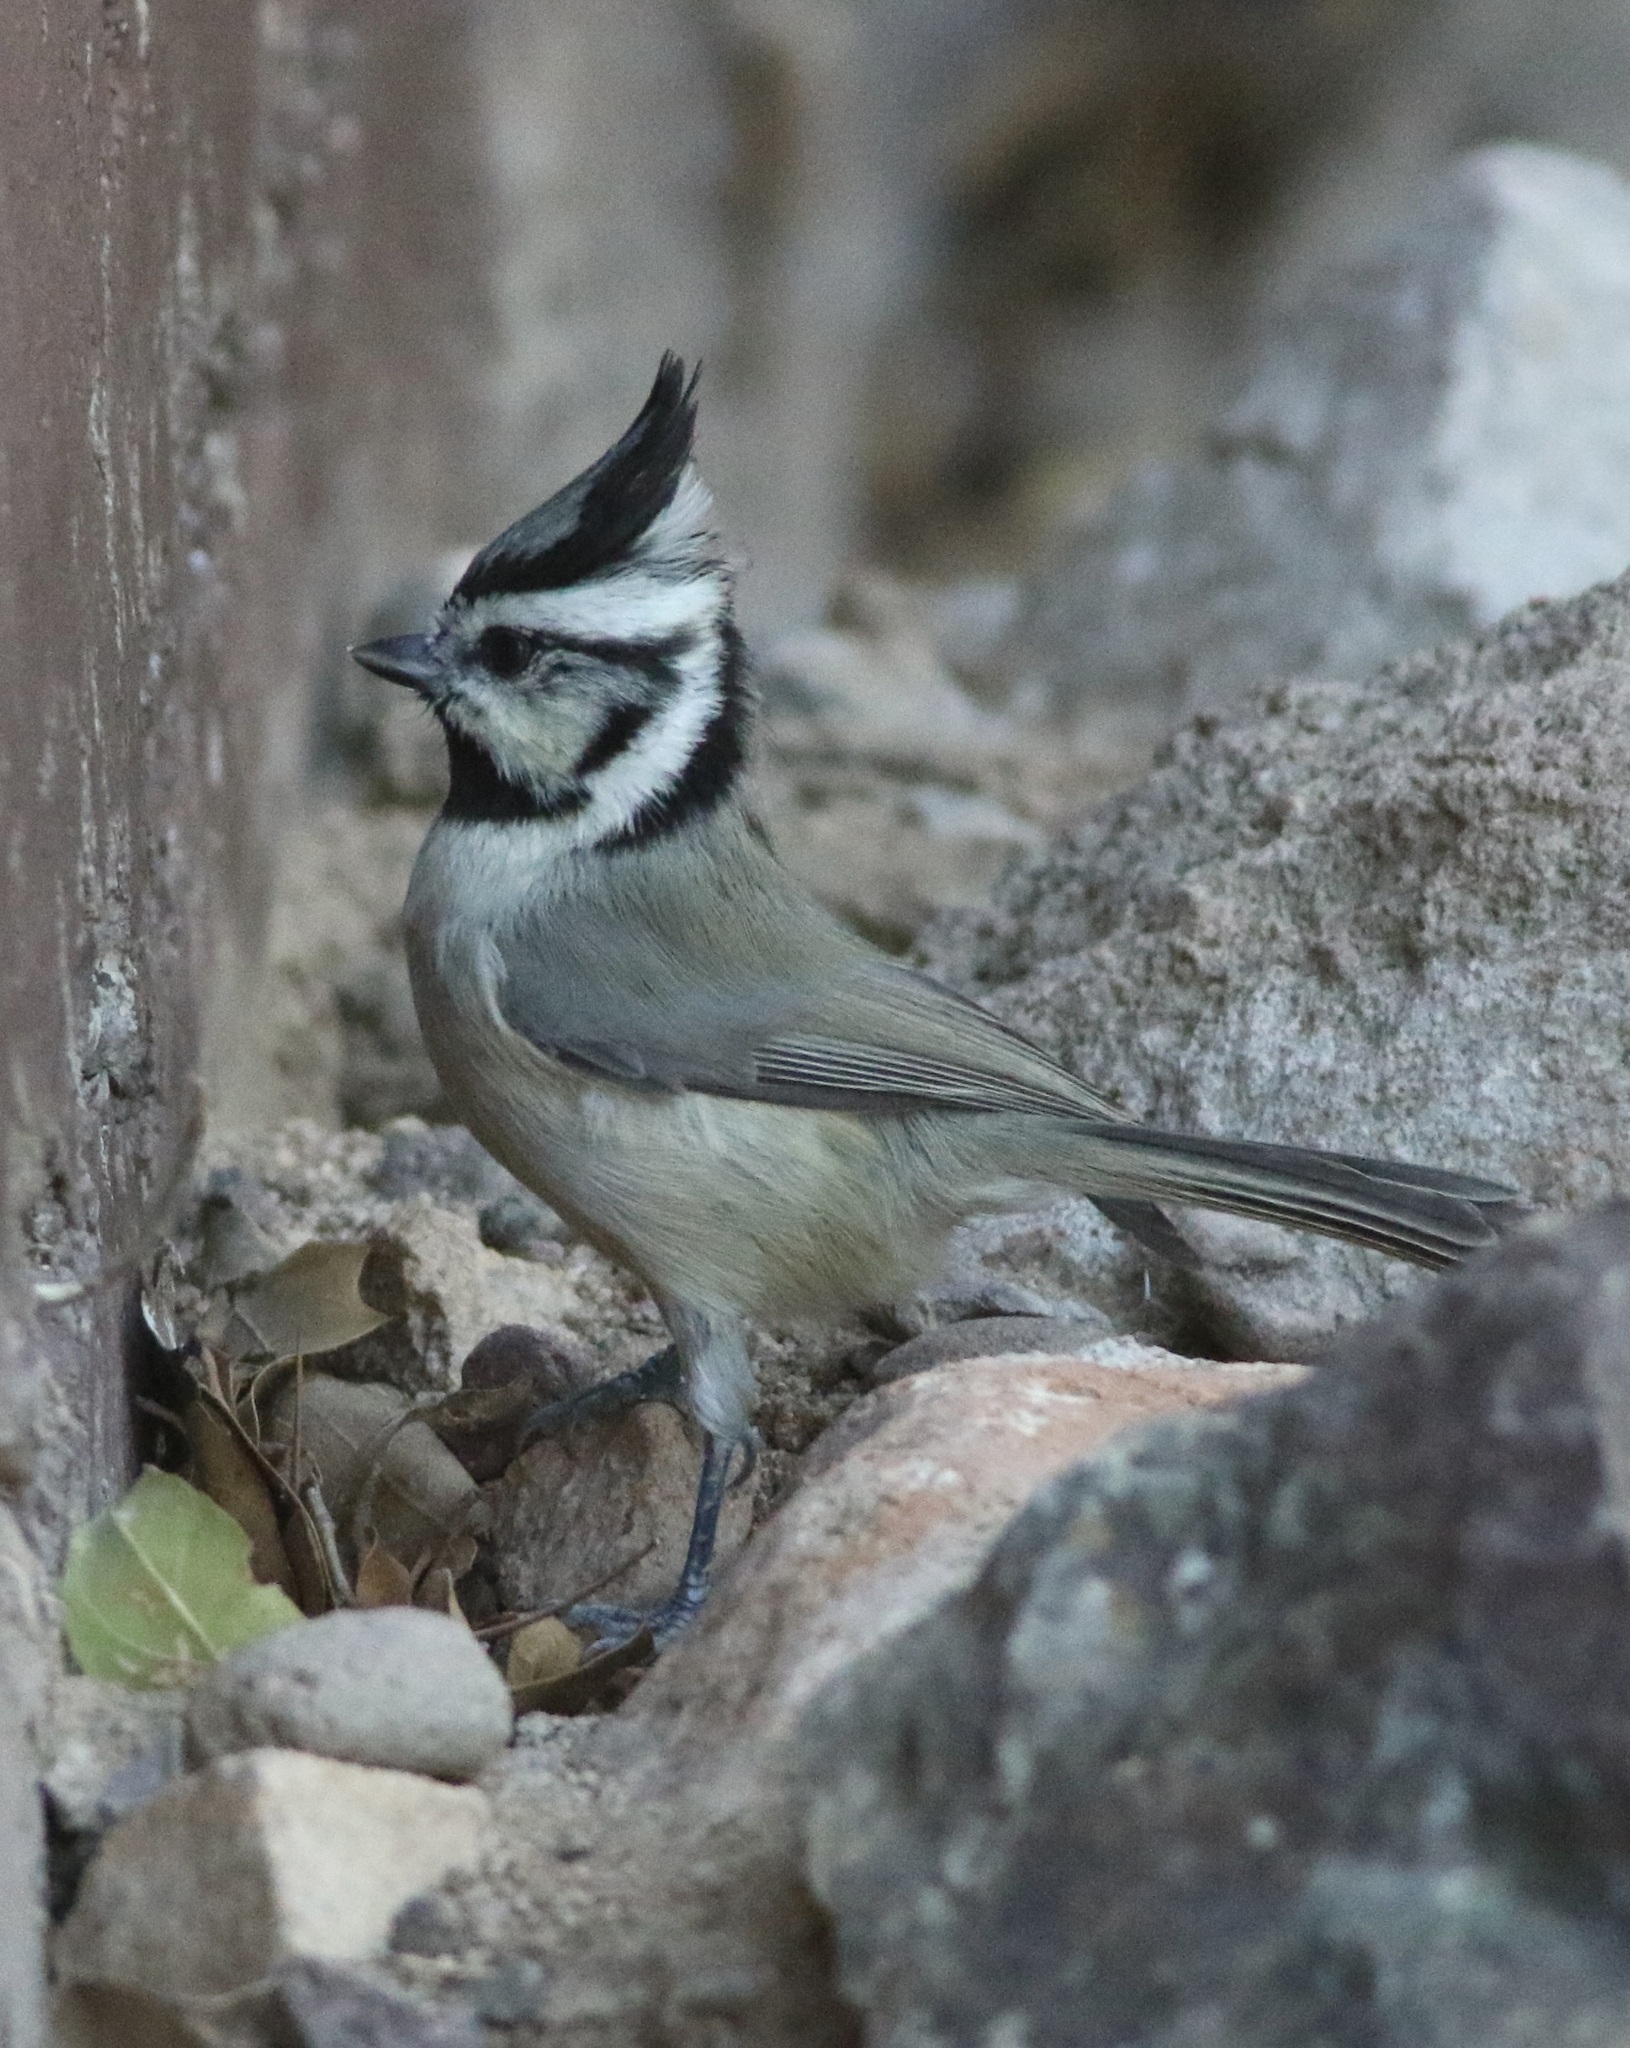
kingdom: Animalia
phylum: Chordata
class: Aves
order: Passeriformes
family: Paridae
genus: Baeolophus
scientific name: Baeolophus wollweberi
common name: Bridled titmouse
